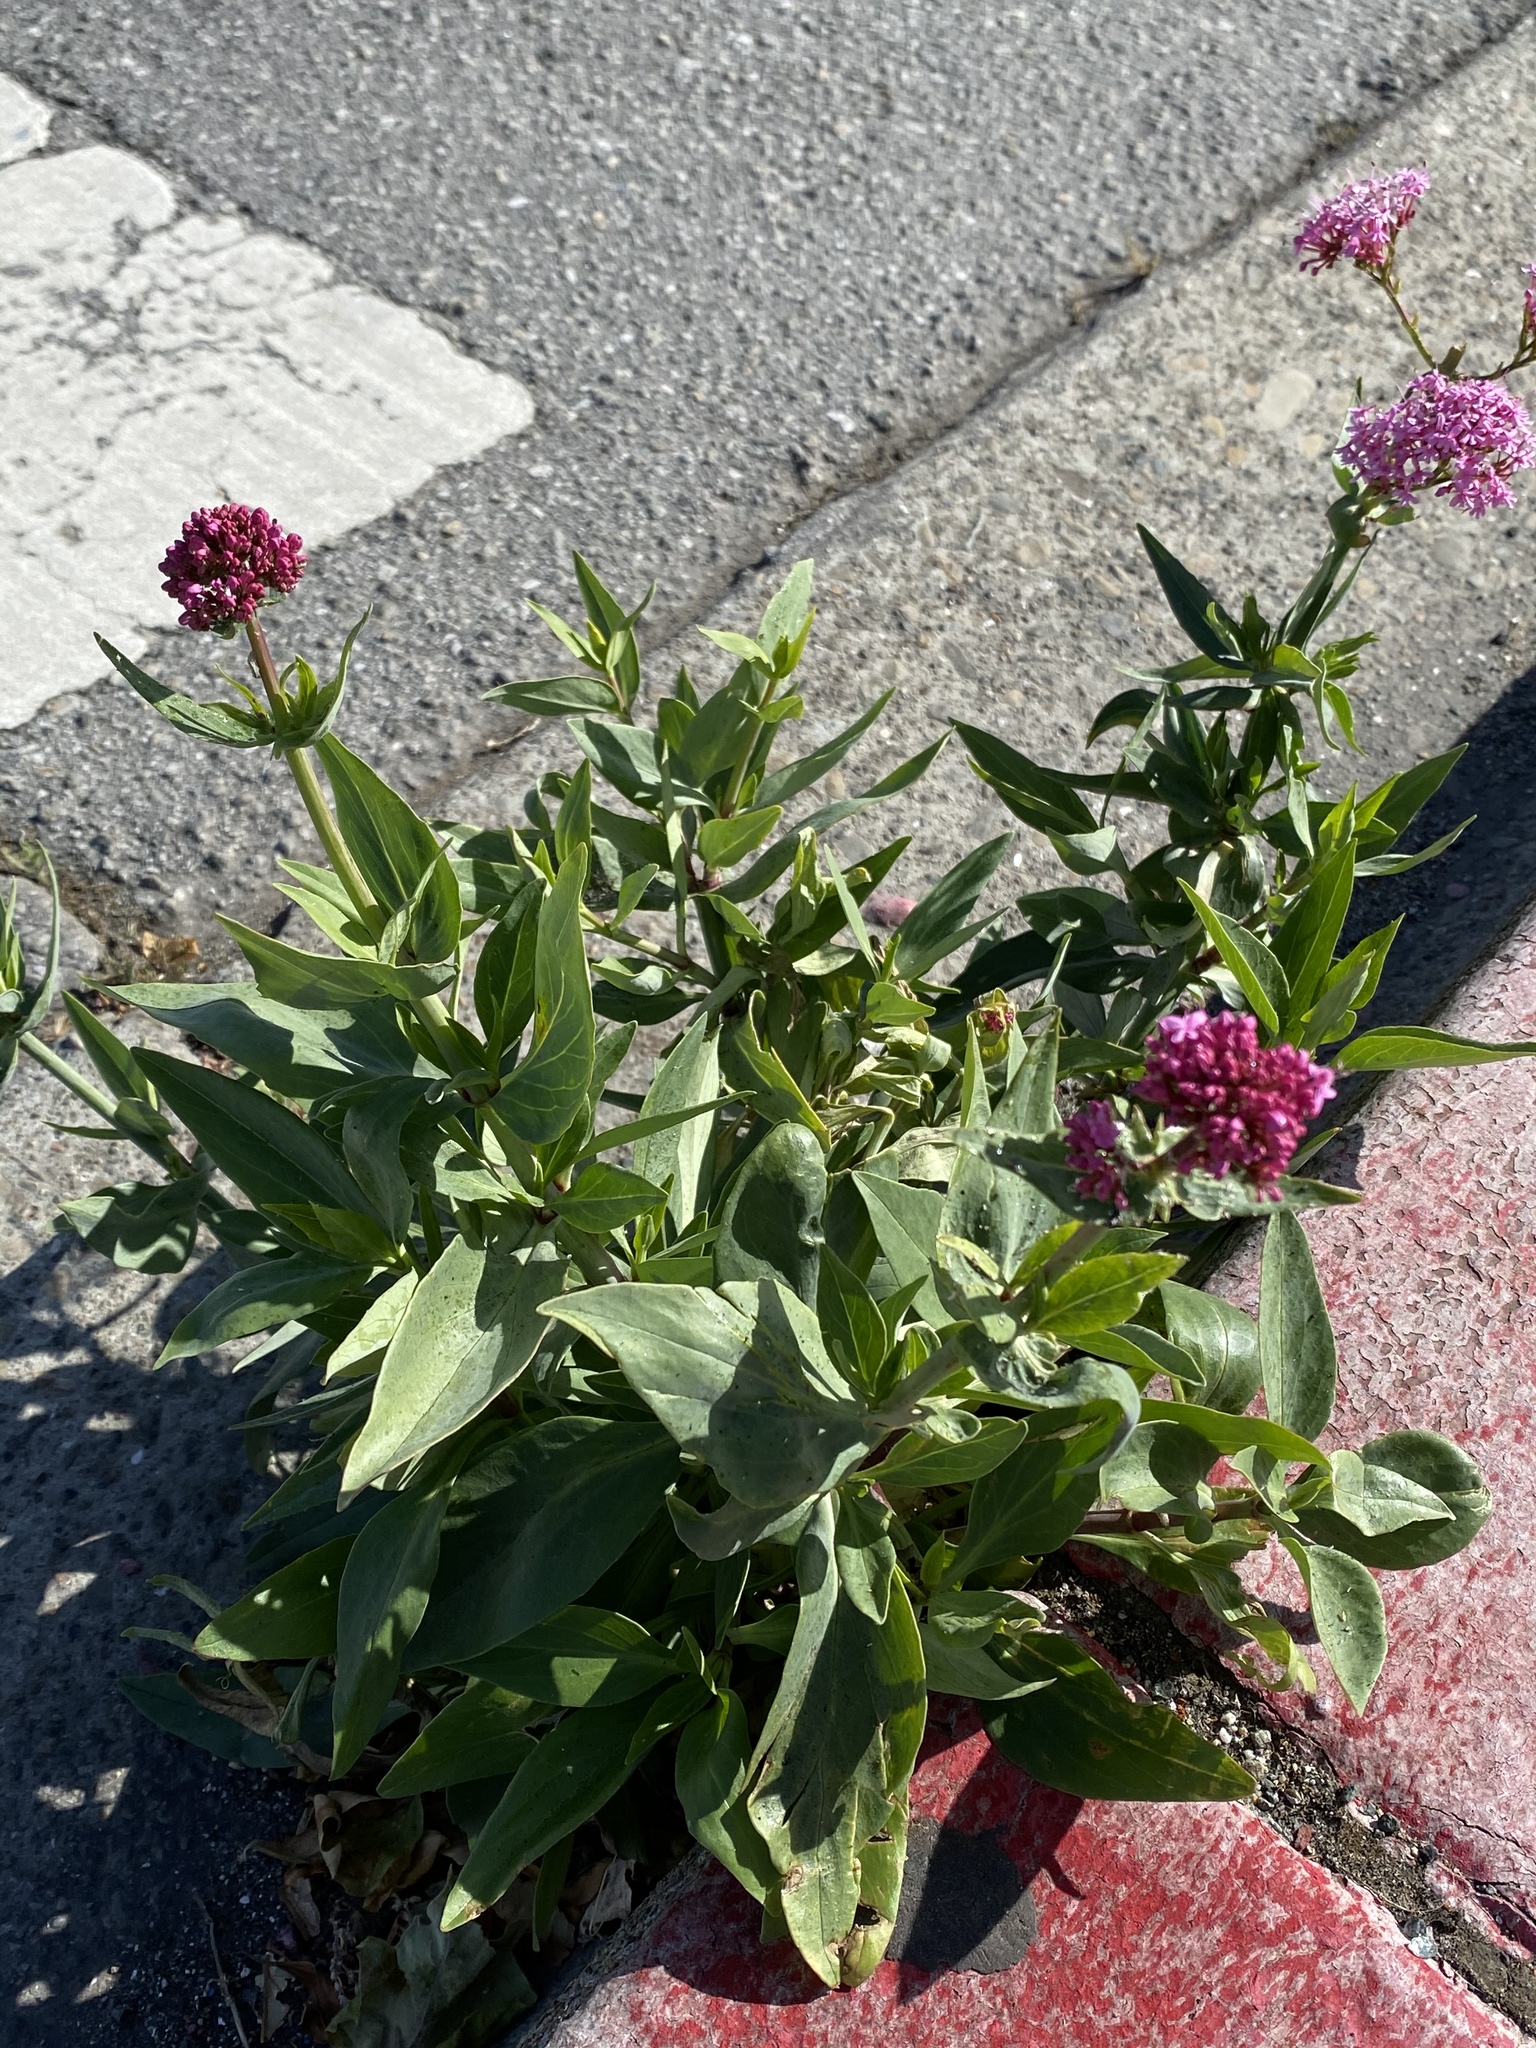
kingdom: Plantae
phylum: Tracheophyta
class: Magnoliopsida
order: Dipsacales
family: Caprifoliaceae
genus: Centranthus
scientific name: Centranthus ruber
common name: Red valerian
